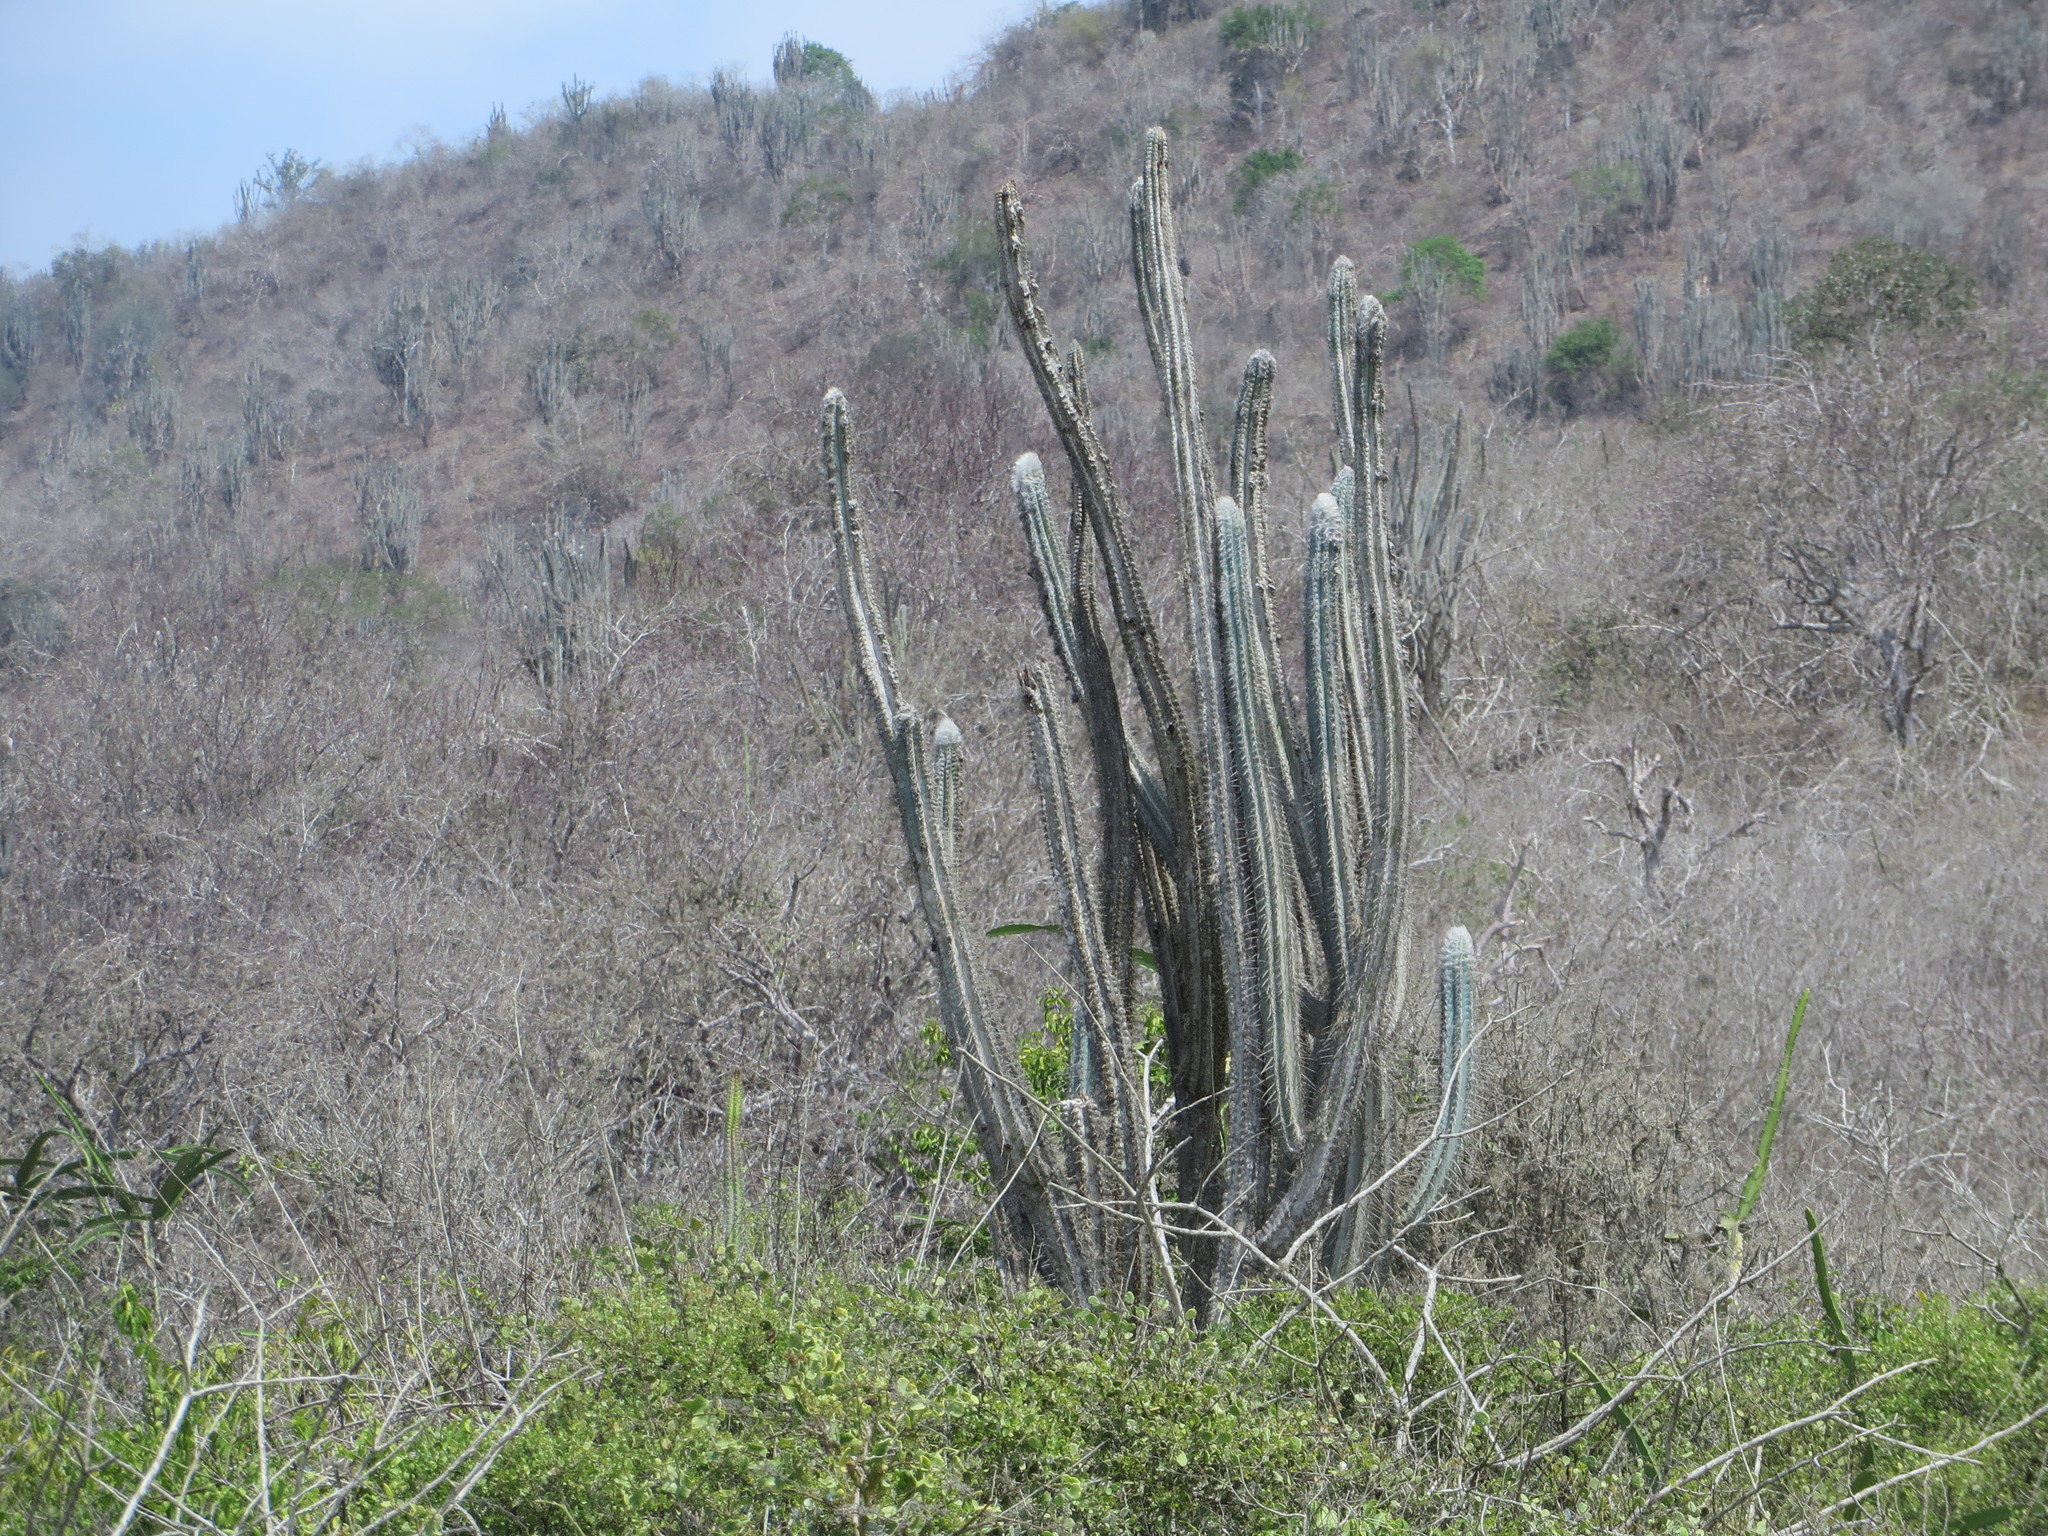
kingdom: Plantae
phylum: Tracheophyta
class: Magnoliopsida
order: Caryophyllales
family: Cactaceae
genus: Pilosocereus
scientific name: Pilosocereus lanuginosus
